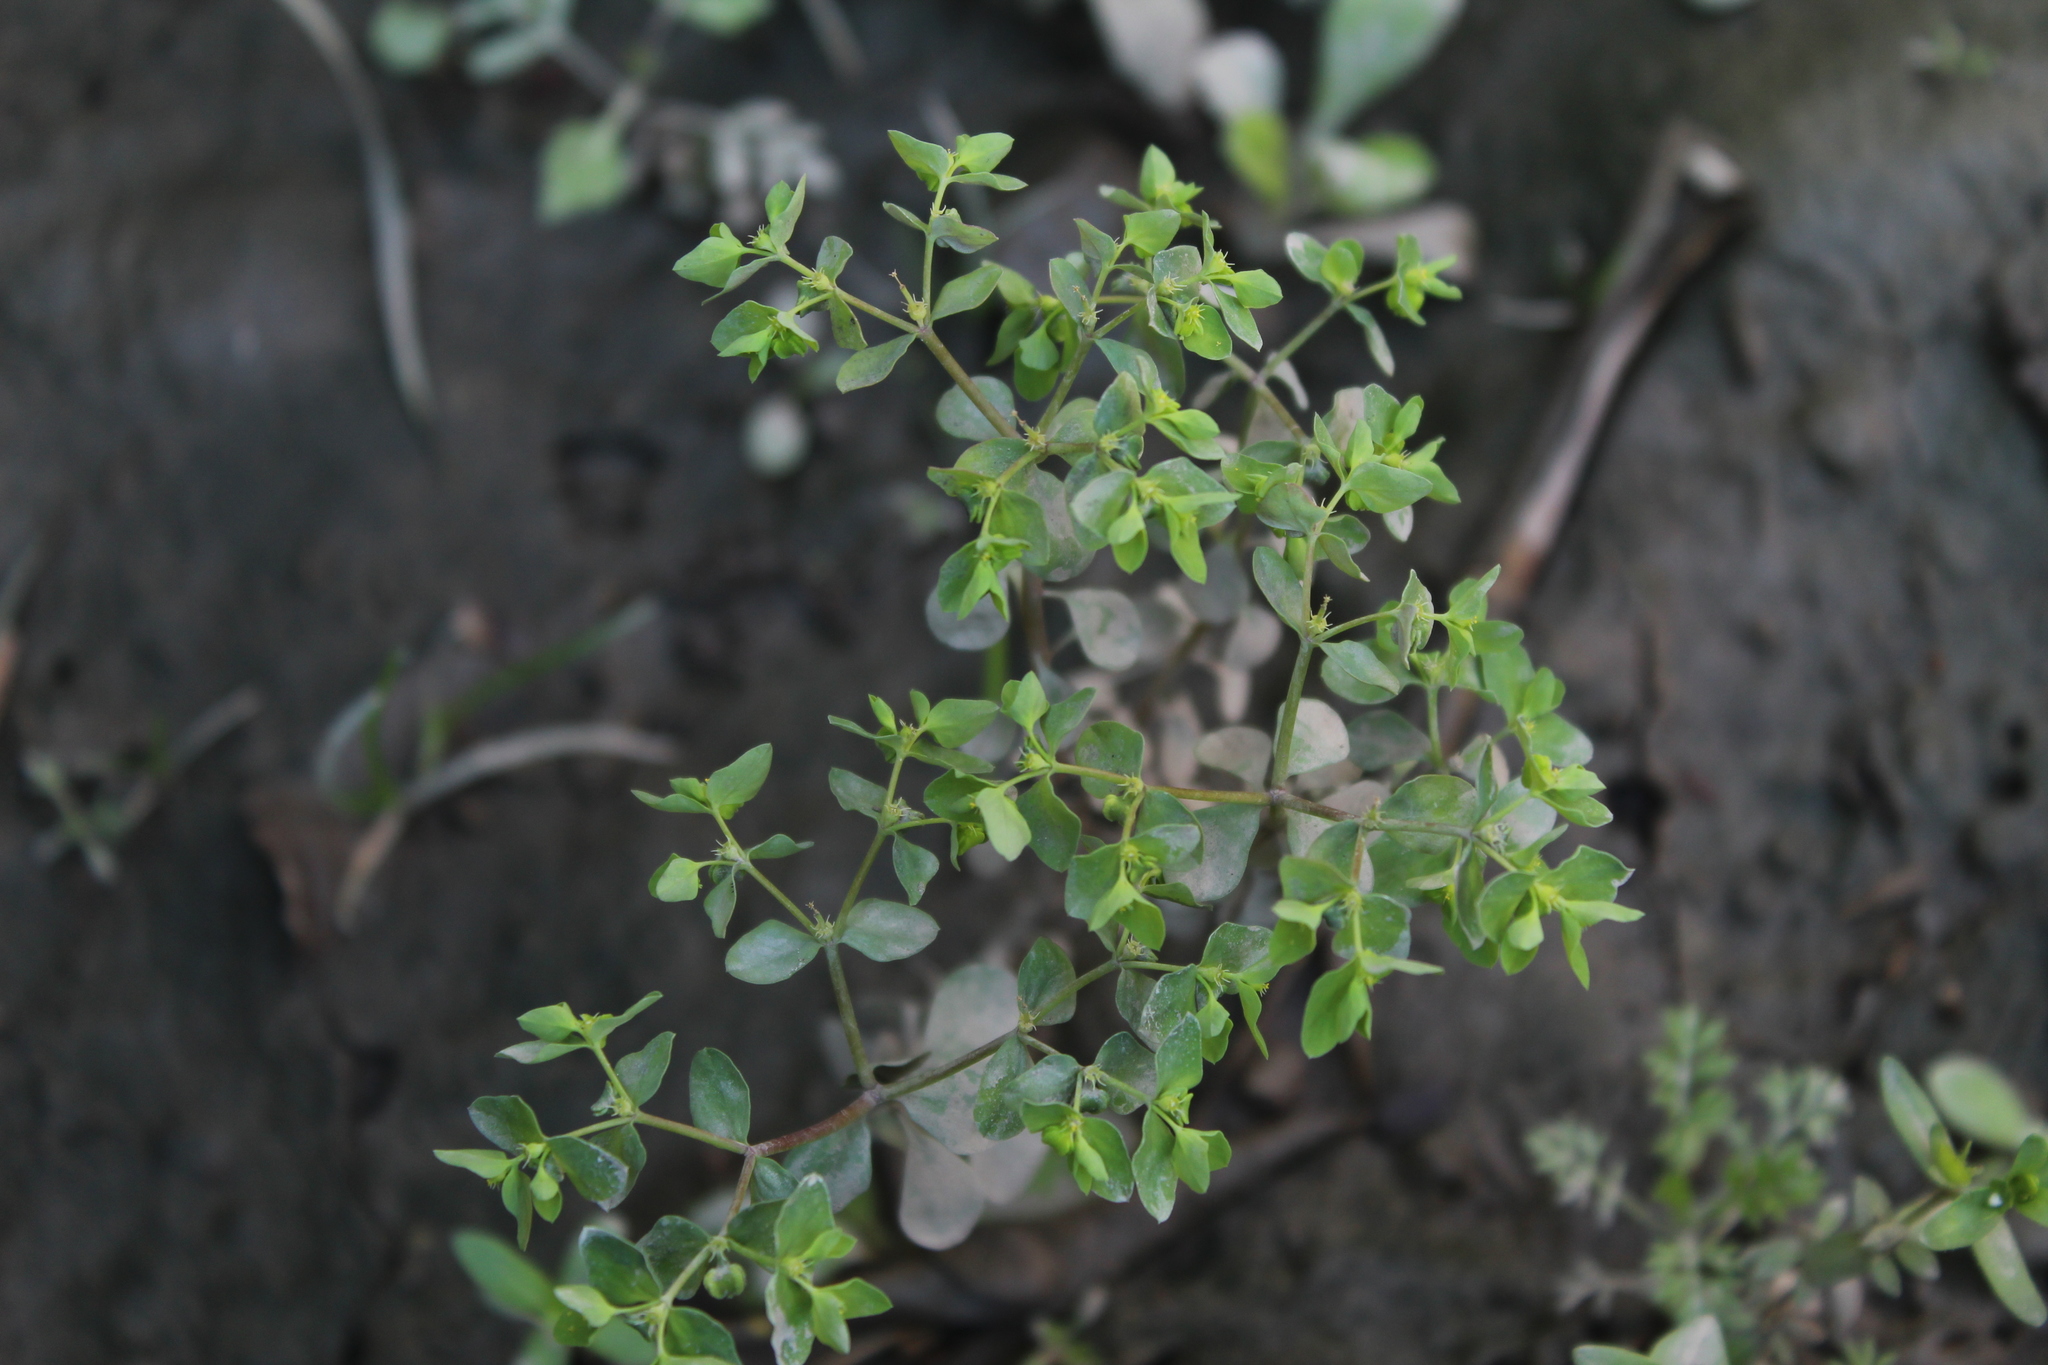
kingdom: Plantae
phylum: Tracheophyta
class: Magnoliopsida
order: Malpighiales
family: Euphorbiaceae
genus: Euphorbia
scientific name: Euphorbia peplus
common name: Petty spurge
